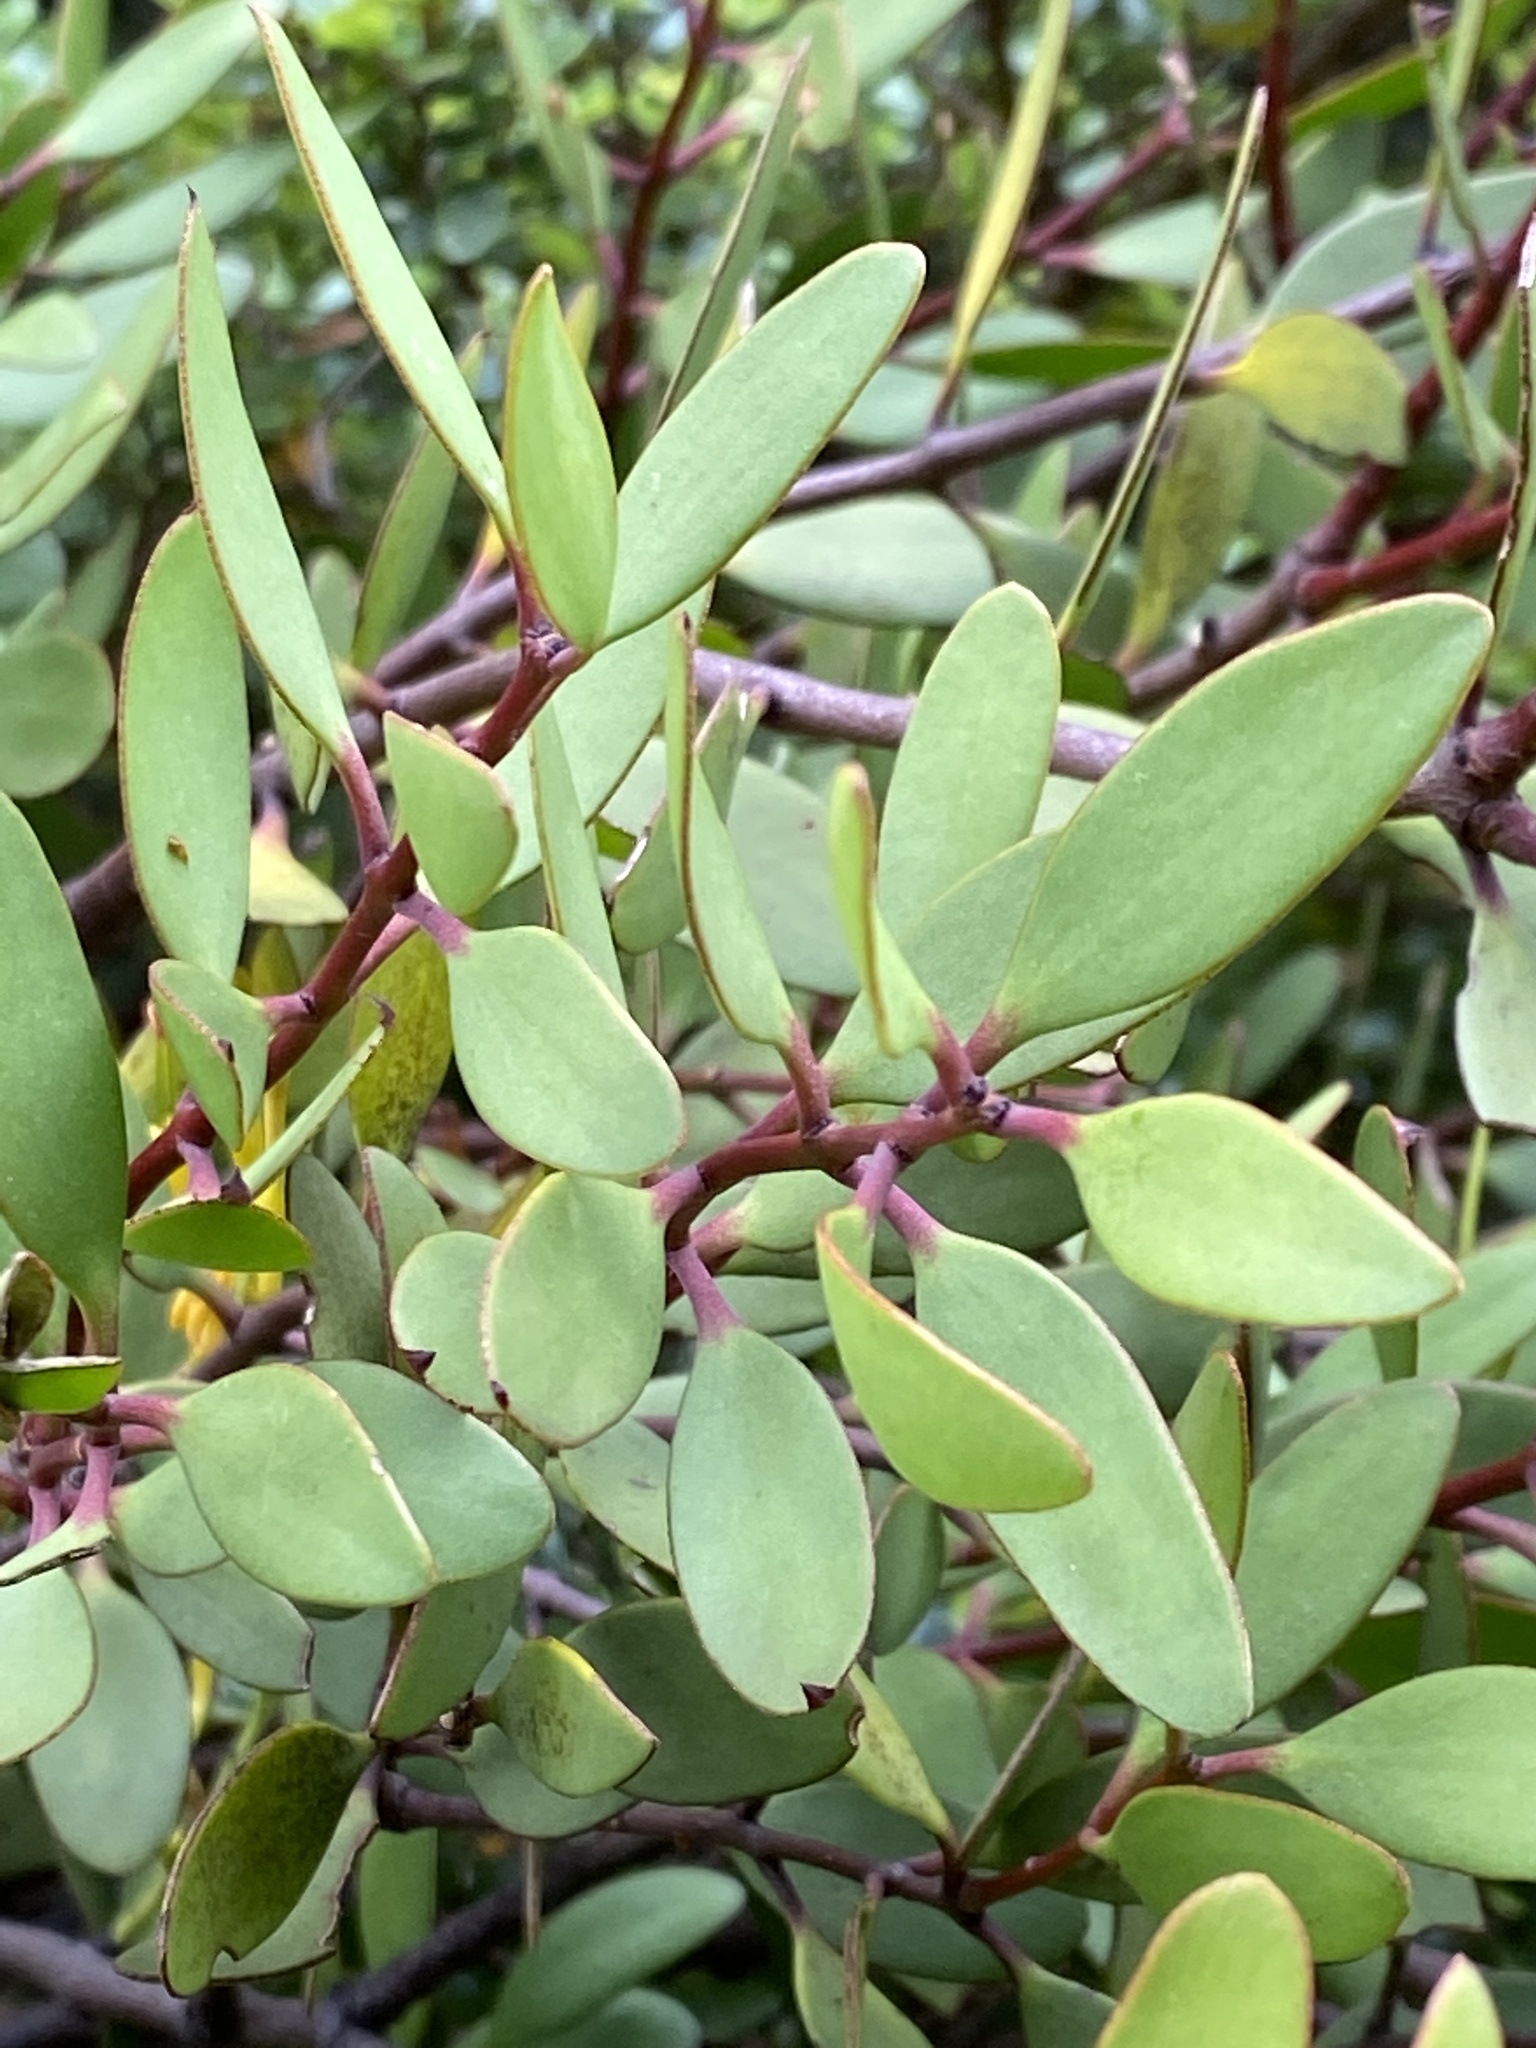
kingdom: Plantae
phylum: Tracheophyta
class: Magnoliopsida
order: Santalales
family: Loranthaceae
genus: Alepis
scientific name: Alepis flavida
